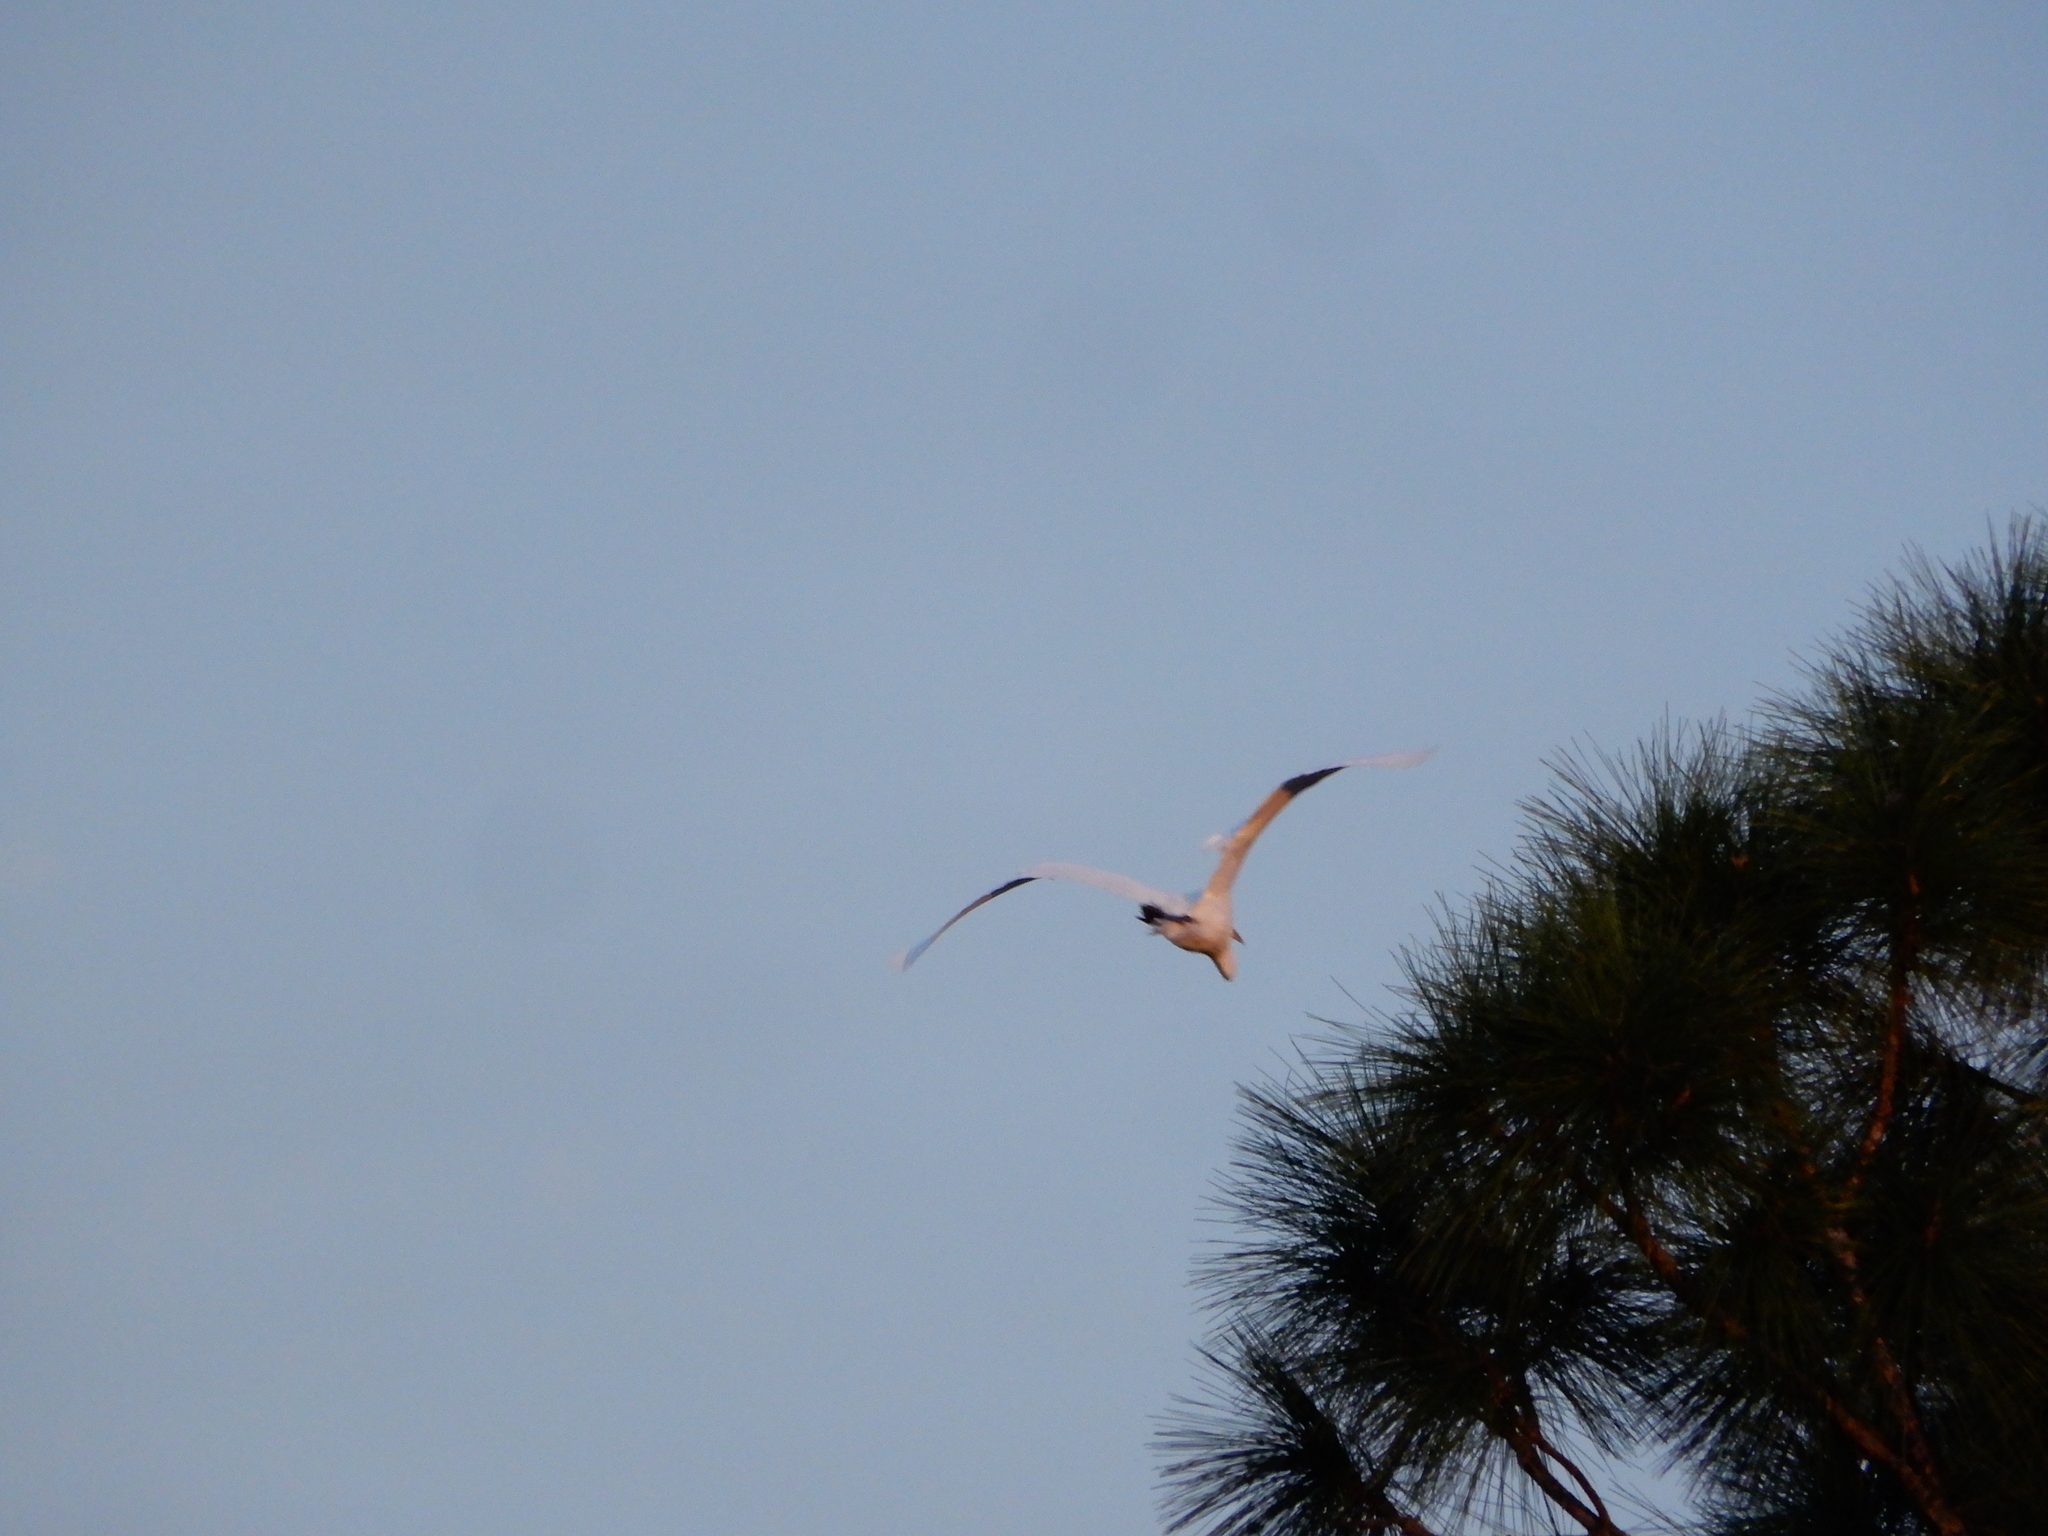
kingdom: Animalia
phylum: Chordata
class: Aves
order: Pelecaniformes
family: Ardeidae
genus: Ardea
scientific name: Ardea alba
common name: Great egret
